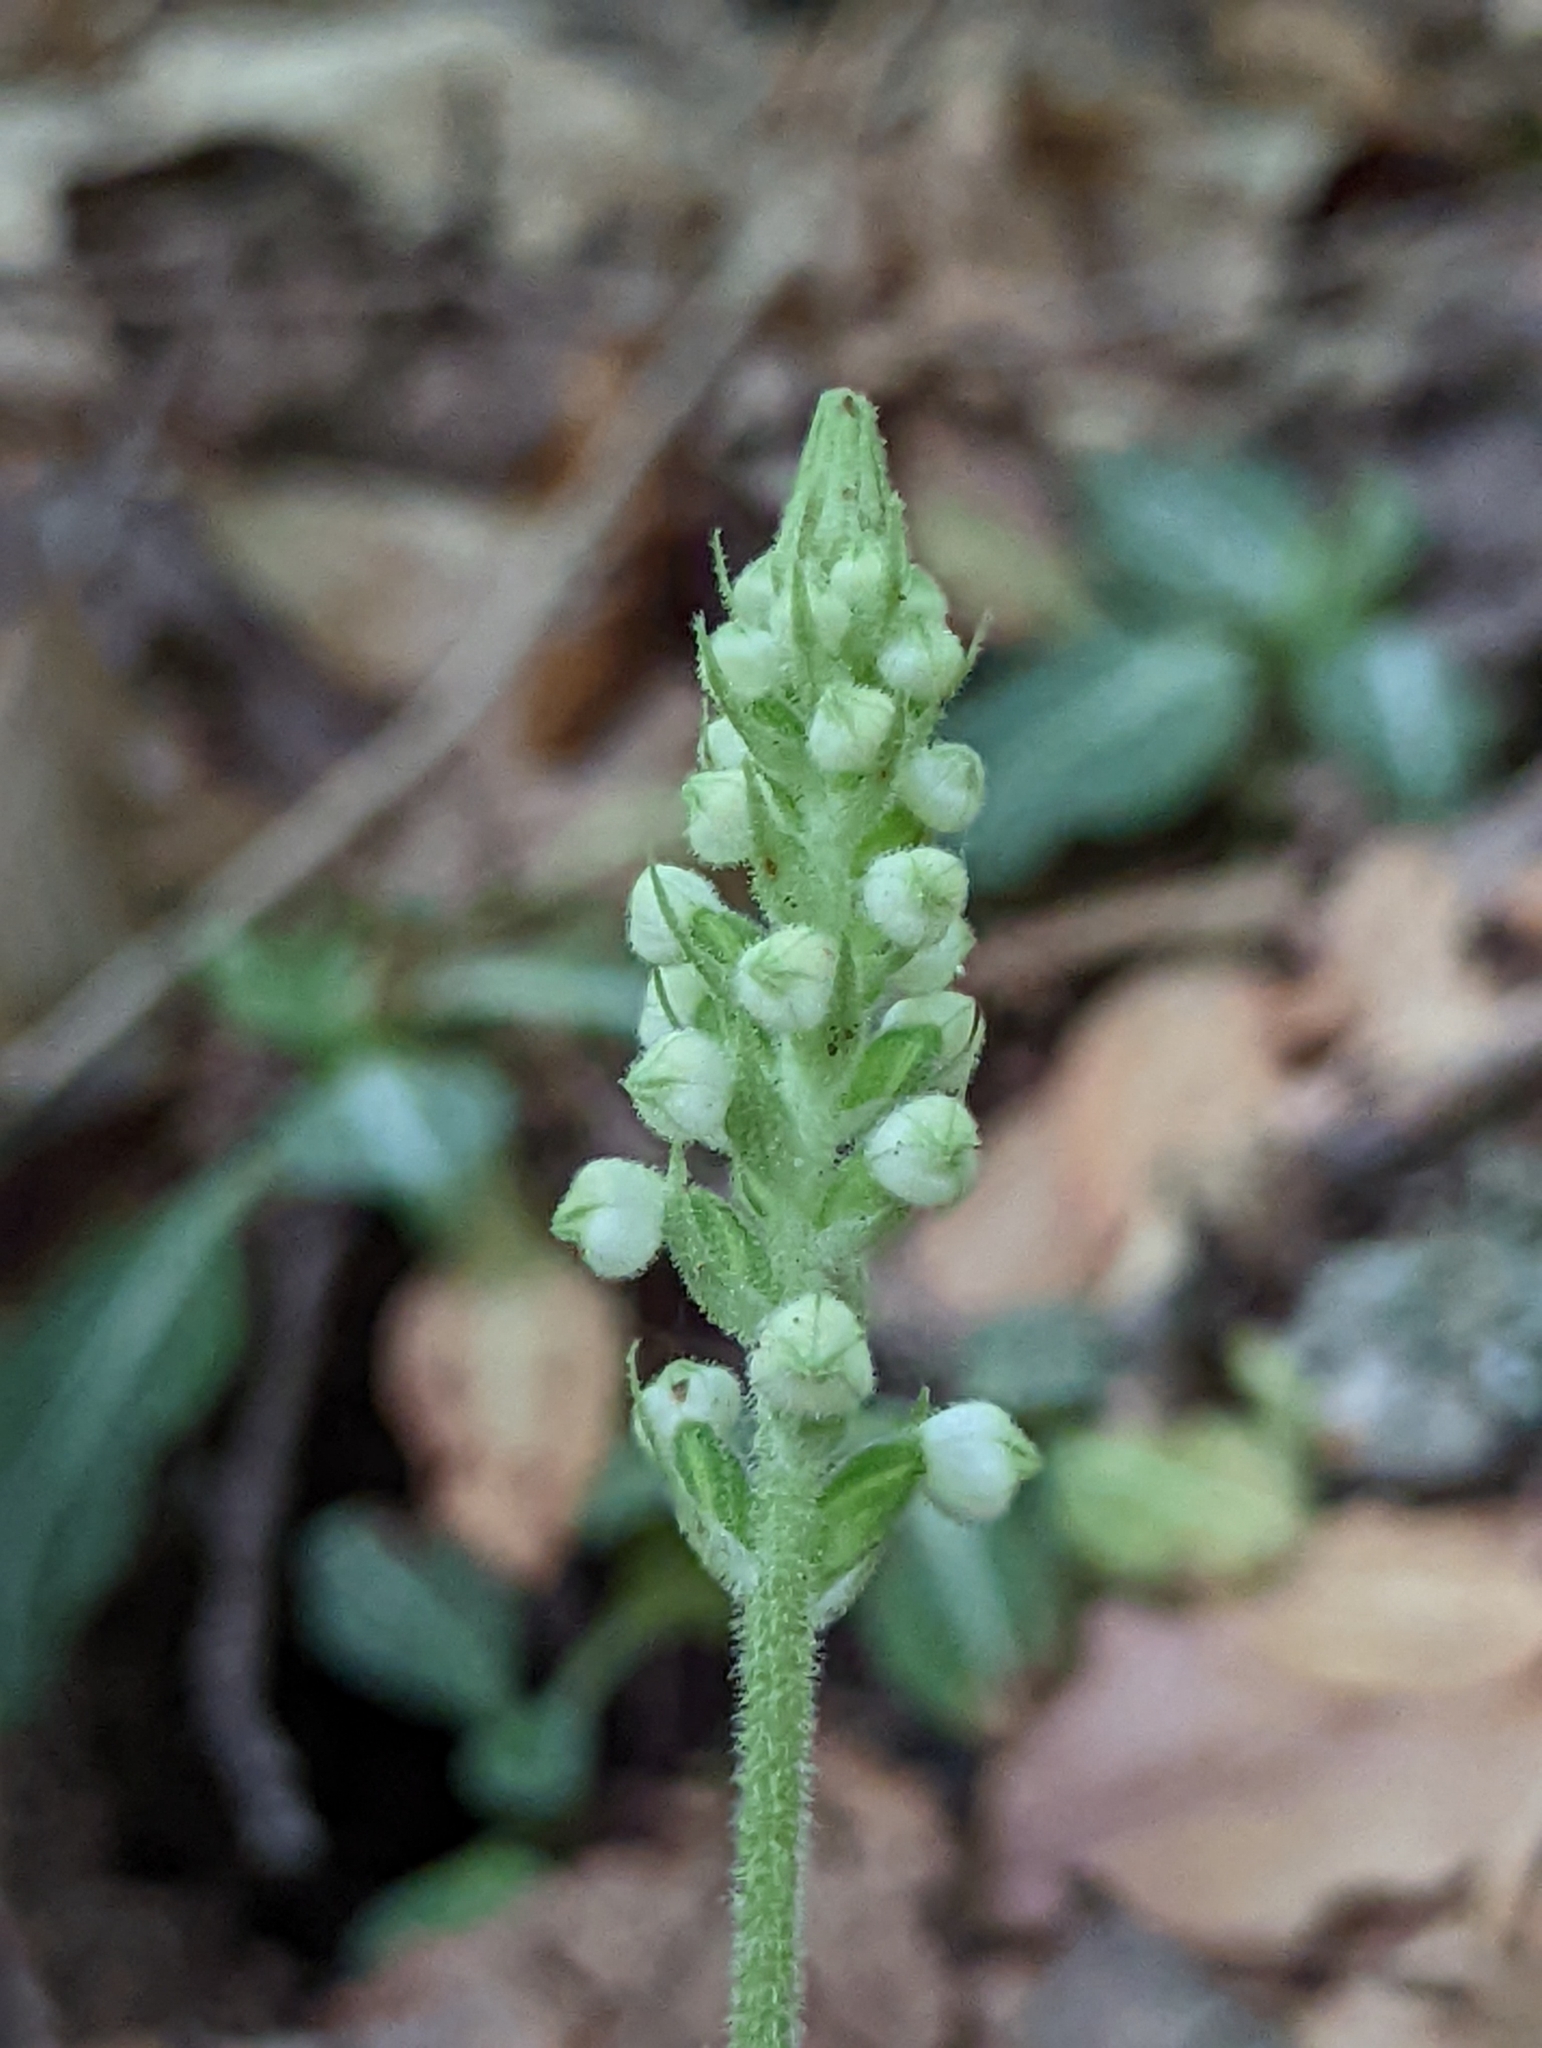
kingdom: Plantae
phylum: Tracheophyta
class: Liliopsida
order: Asparagales
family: Orchidaceae
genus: Goodyera
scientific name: Goodyera pubescens
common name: Downy rattlesnake-plantain
